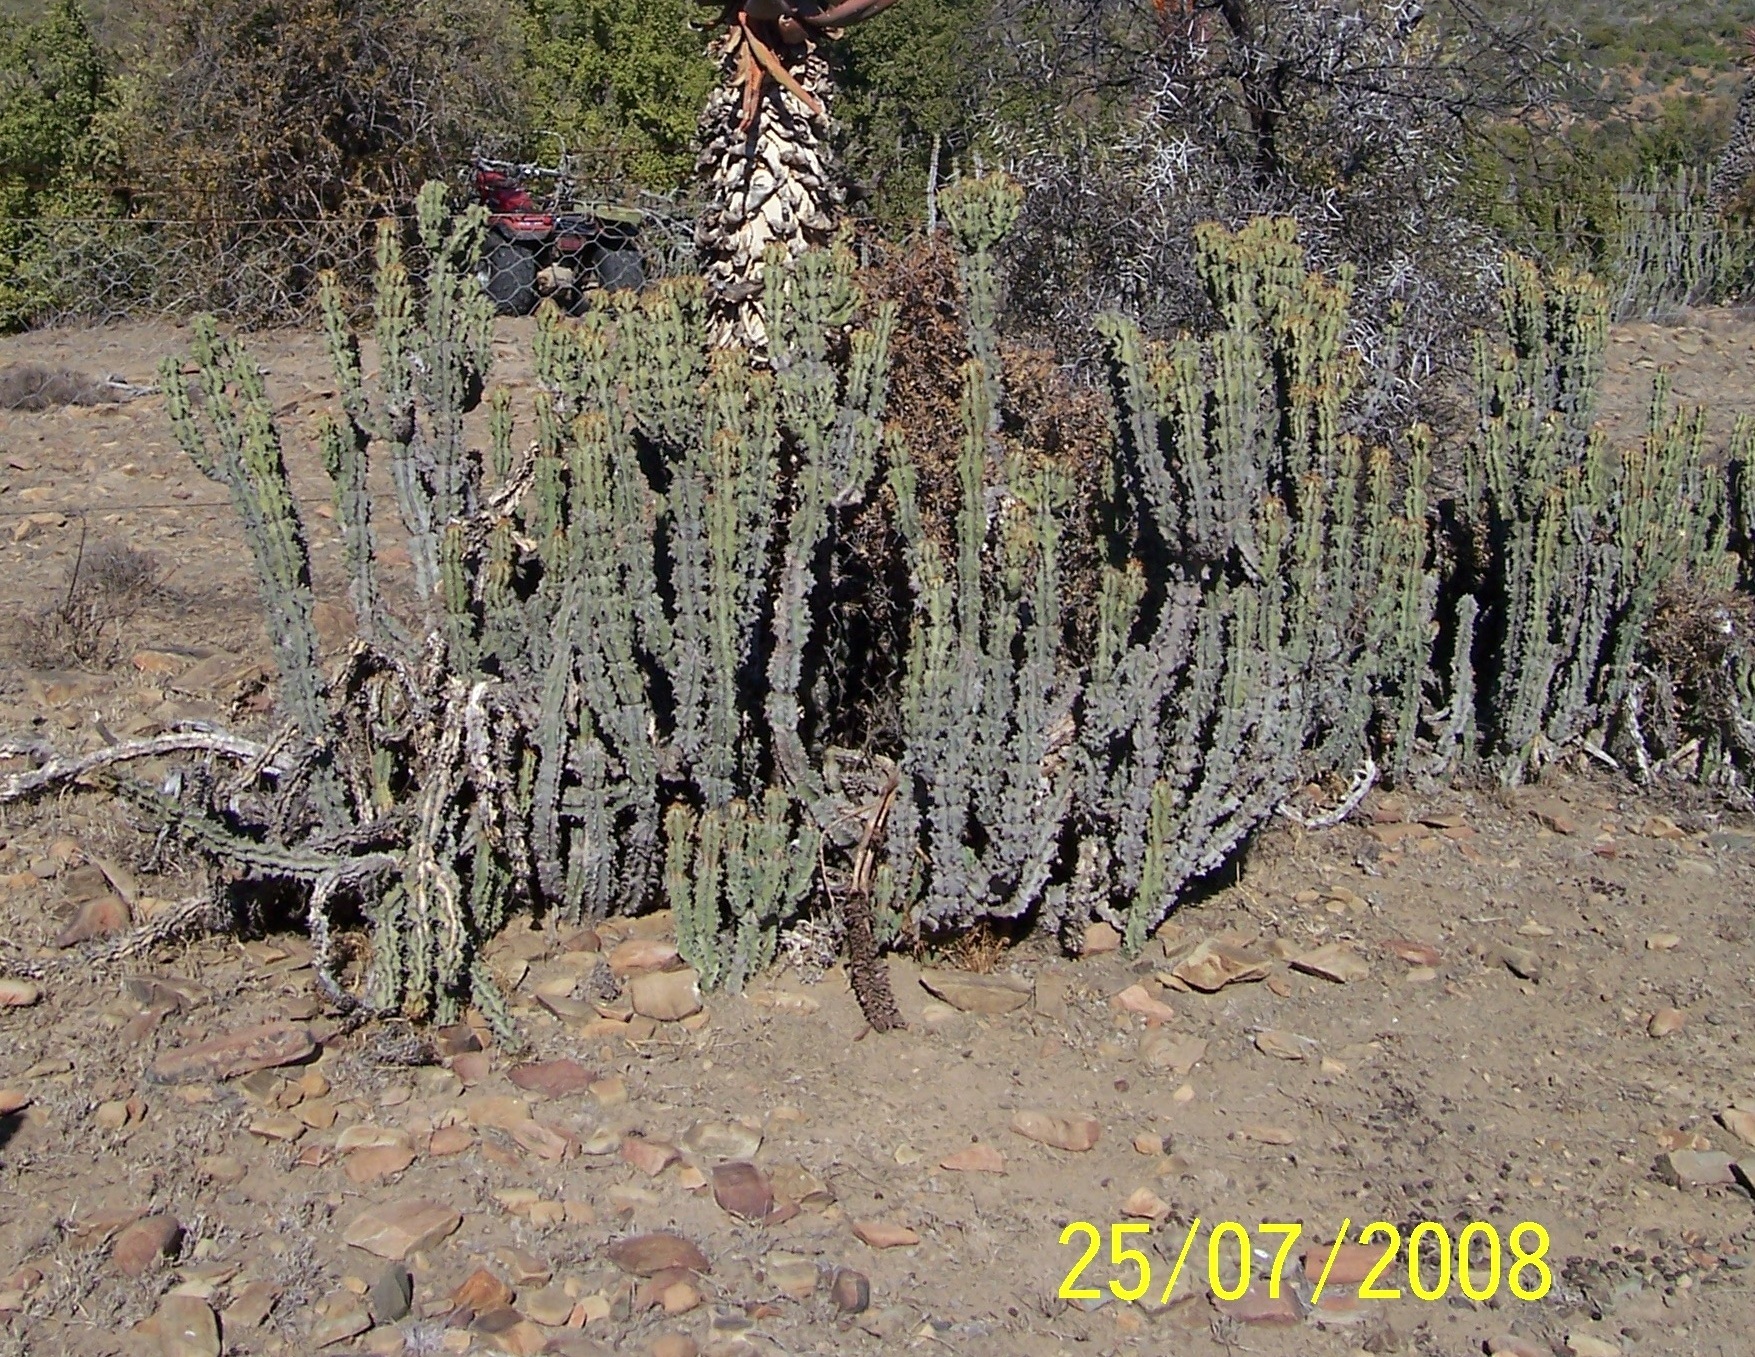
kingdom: Plantae
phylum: Tracheophyta
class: Magnoliopsida
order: Malpighiales
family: Euphorbiaceae
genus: Euphorbia
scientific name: Euphorbia radyeri
